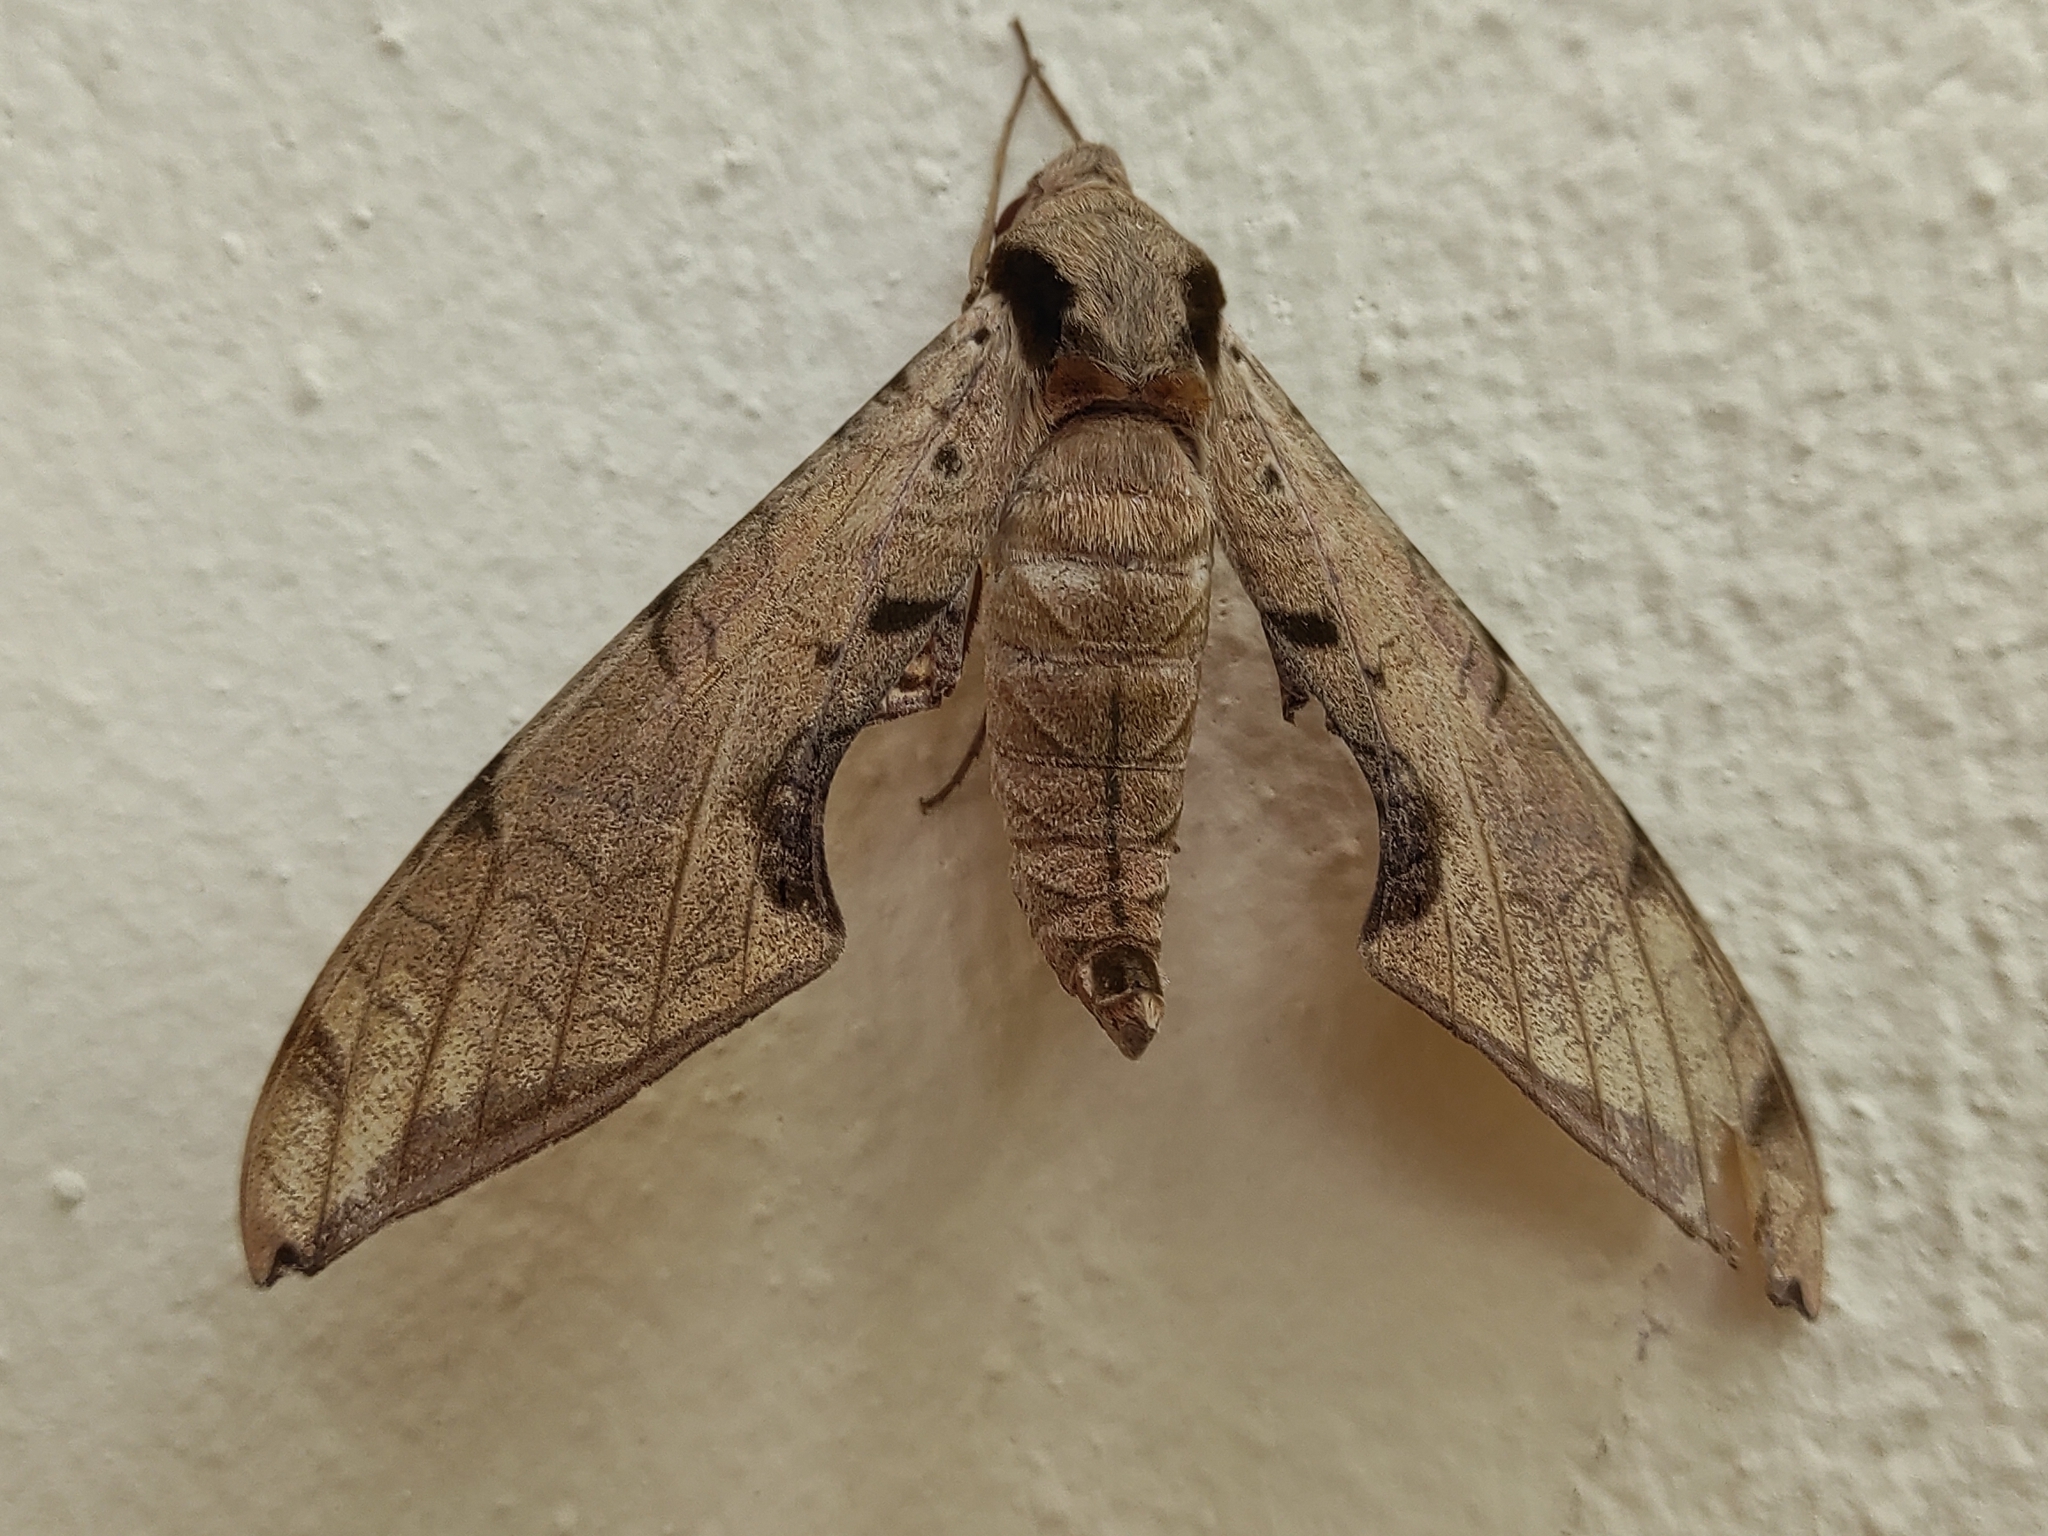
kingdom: Animalia
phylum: Arthropoda
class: Insecta
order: Lepidoptera
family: Sphingidae
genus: Protambulyx
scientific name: Protambulyx strigilis
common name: Streaked sphinx
